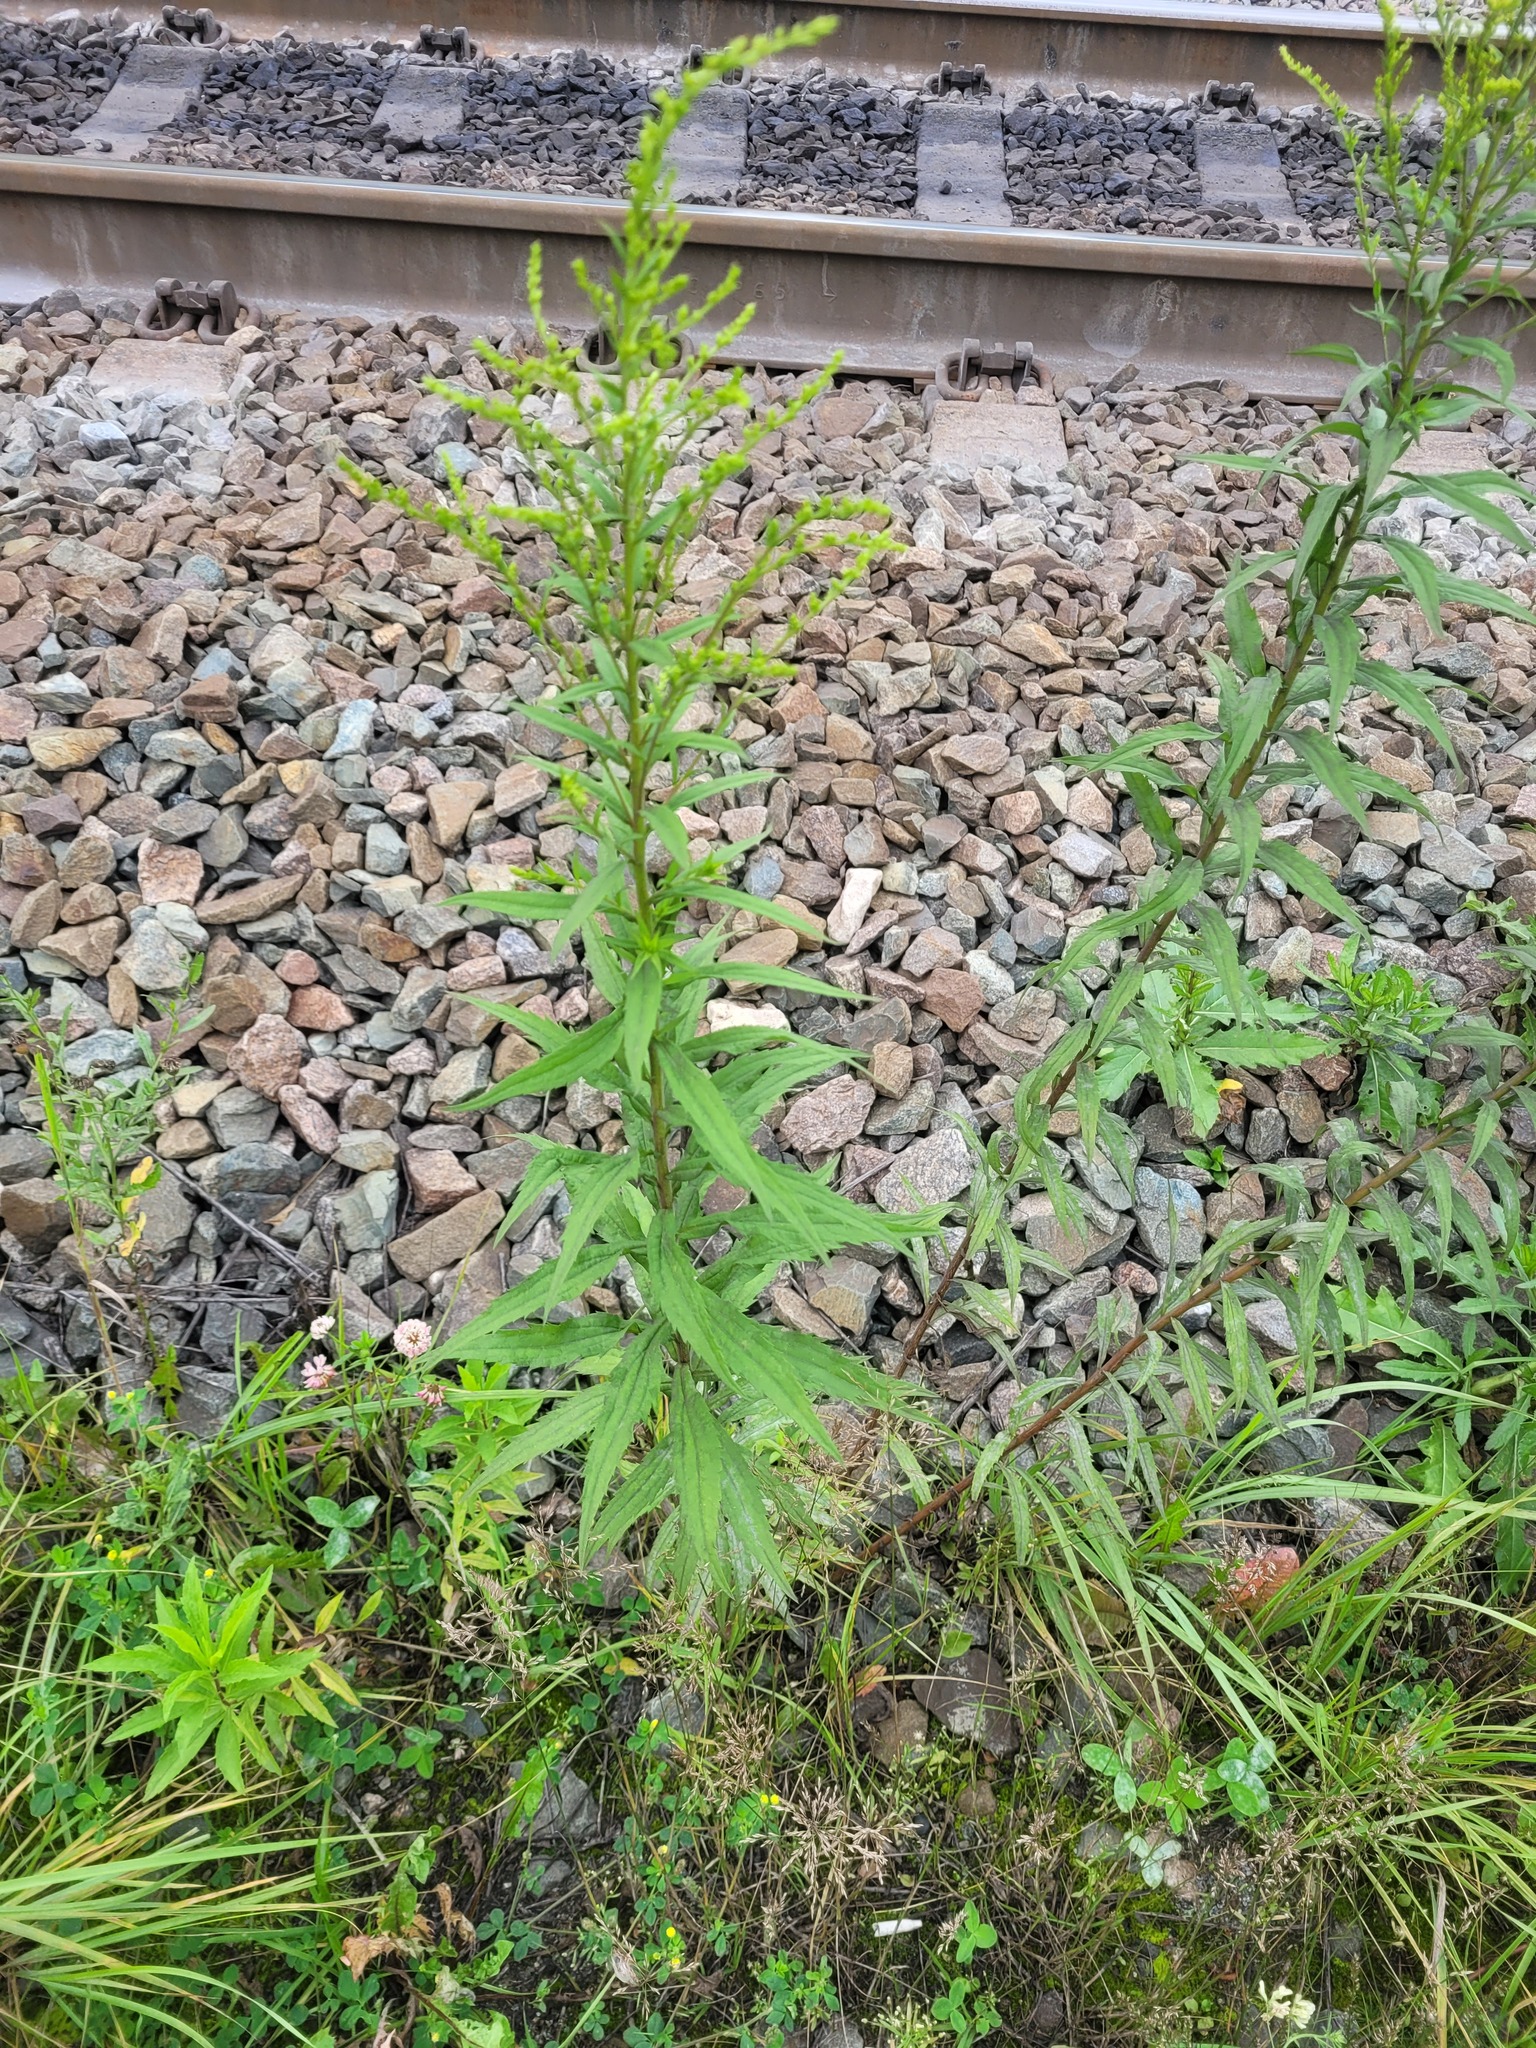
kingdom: Plantae
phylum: Tracheophyta
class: Magnoliopsida
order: Asterales
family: Asteraceae
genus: Solidago
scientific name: Solidago canadensis
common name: Canada goldenrod
